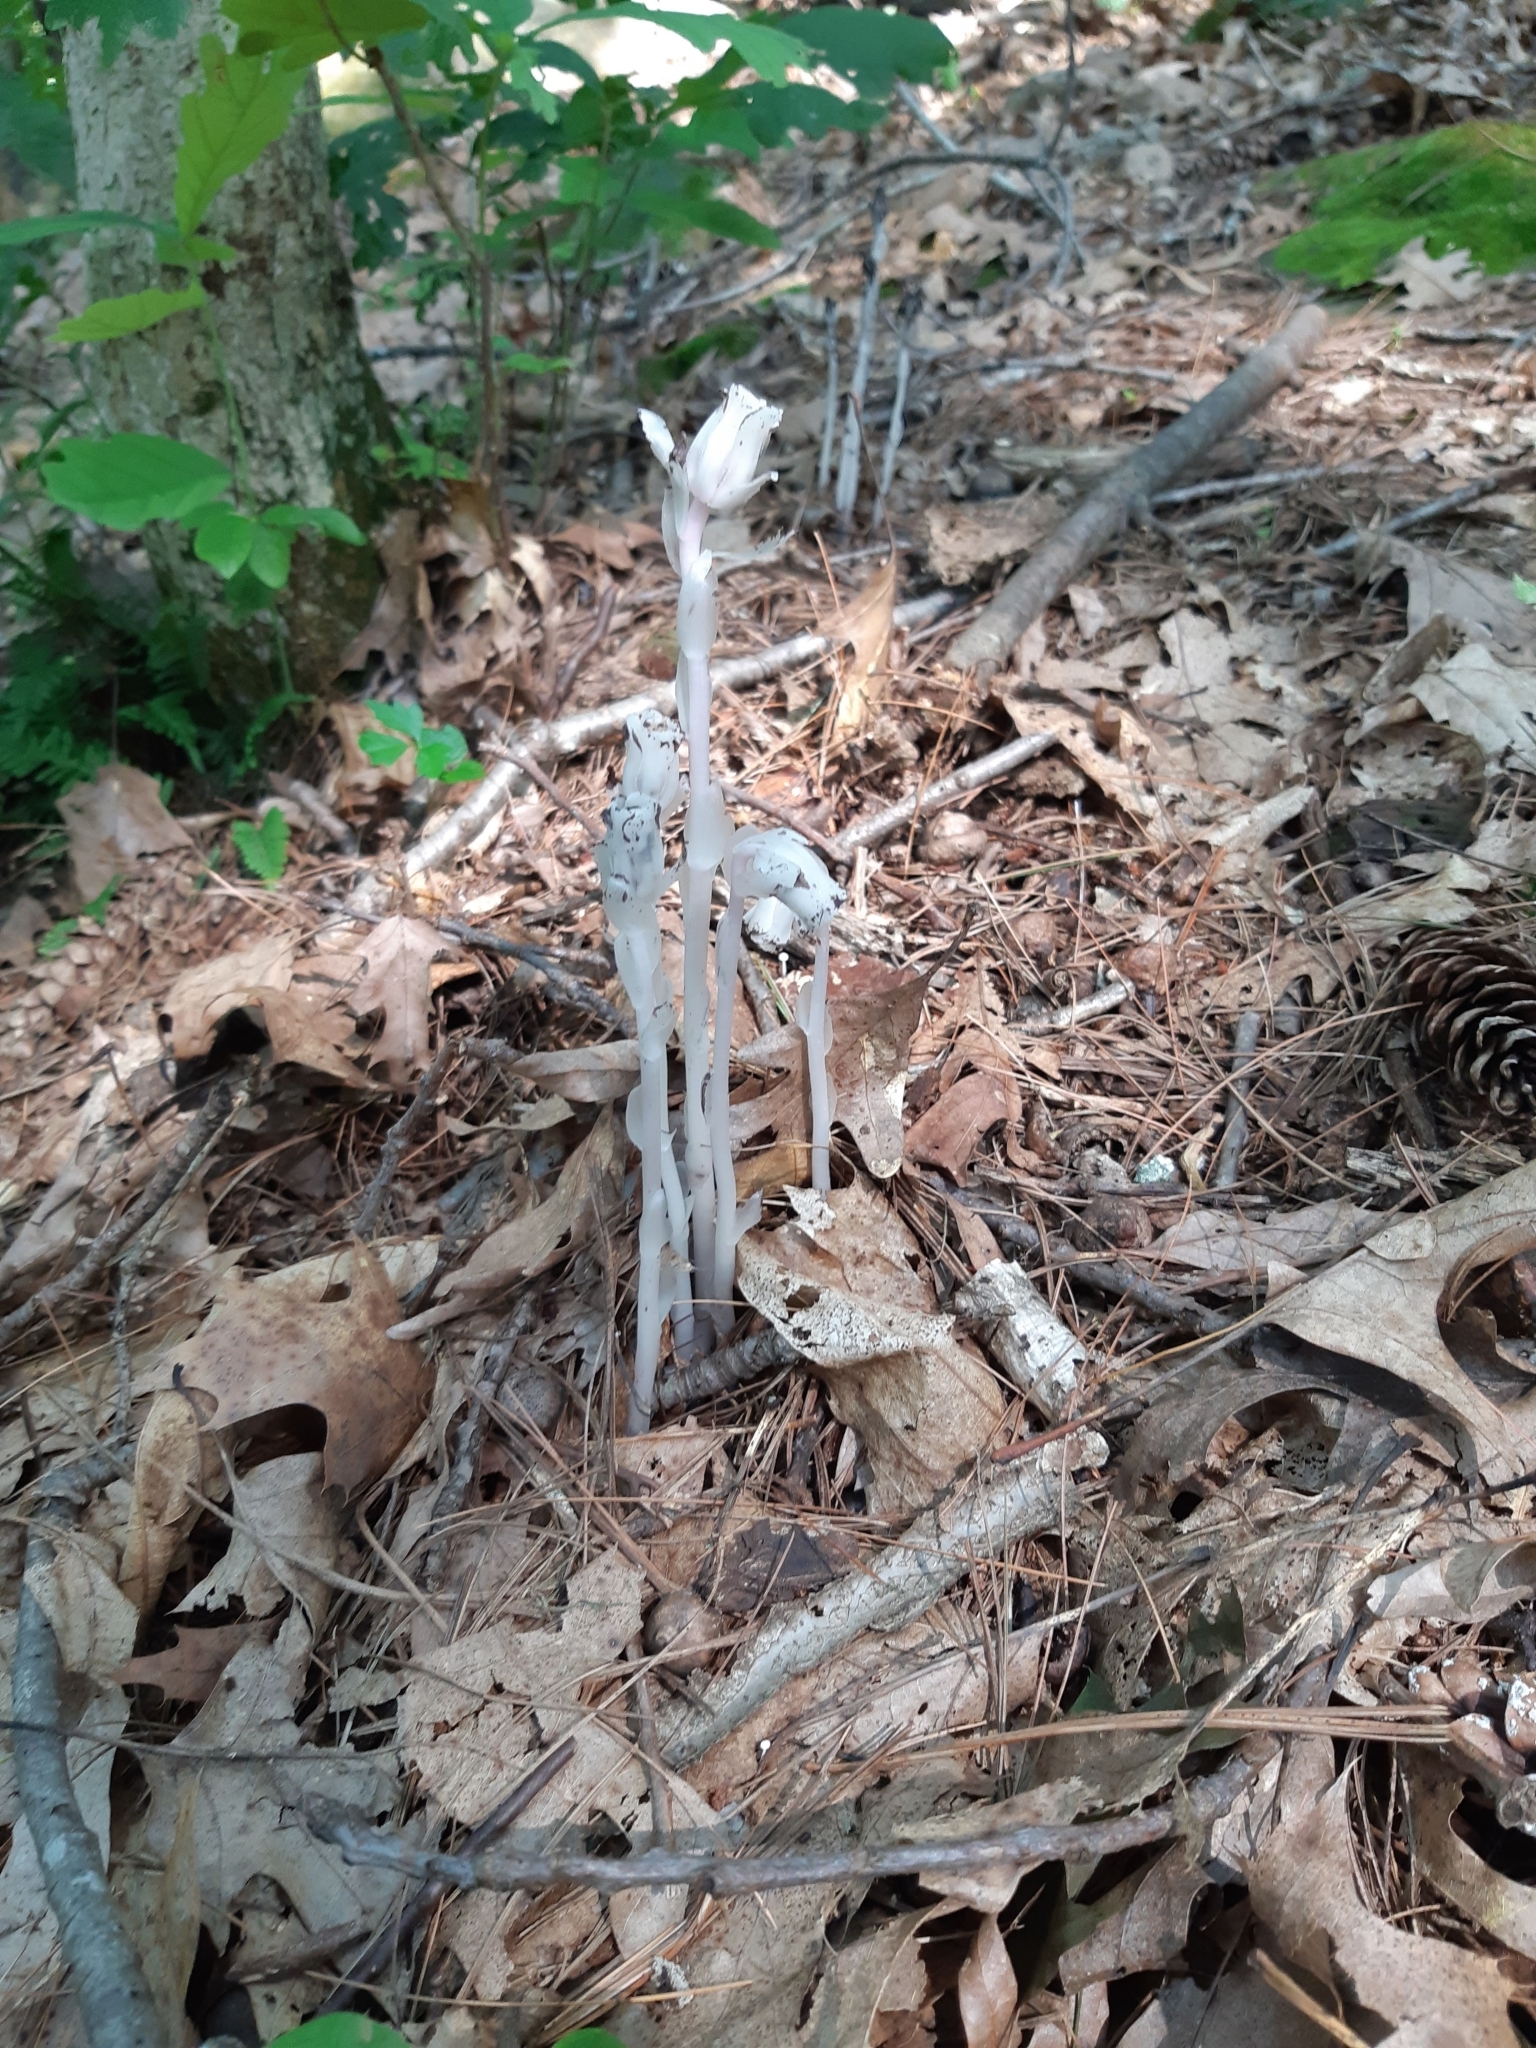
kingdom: Plantae
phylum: Tracheophyta
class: Magnoliopsida
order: Ericales
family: Ericaceae
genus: Monotropa
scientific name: Monotropa uniflora
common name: Convulsion root
